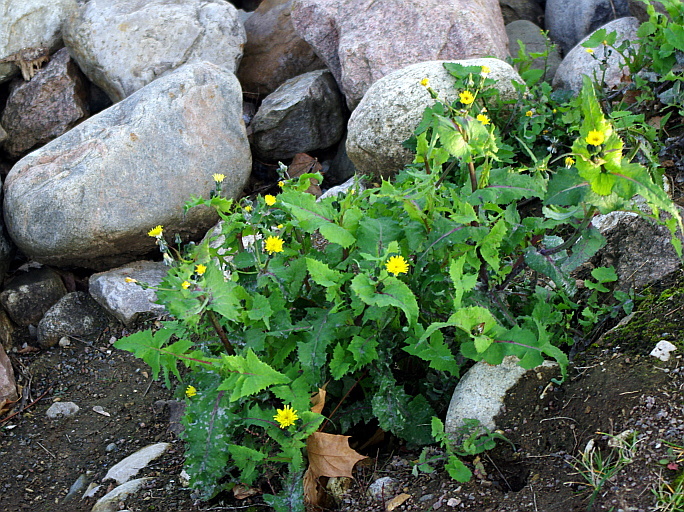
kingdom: Plantae
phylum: Tracheophyta
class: Magnoliopsida
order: Asterales
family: Asteraceae
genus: Sonchus
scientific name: Sonchus oleraceus
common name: Common sowthistle
